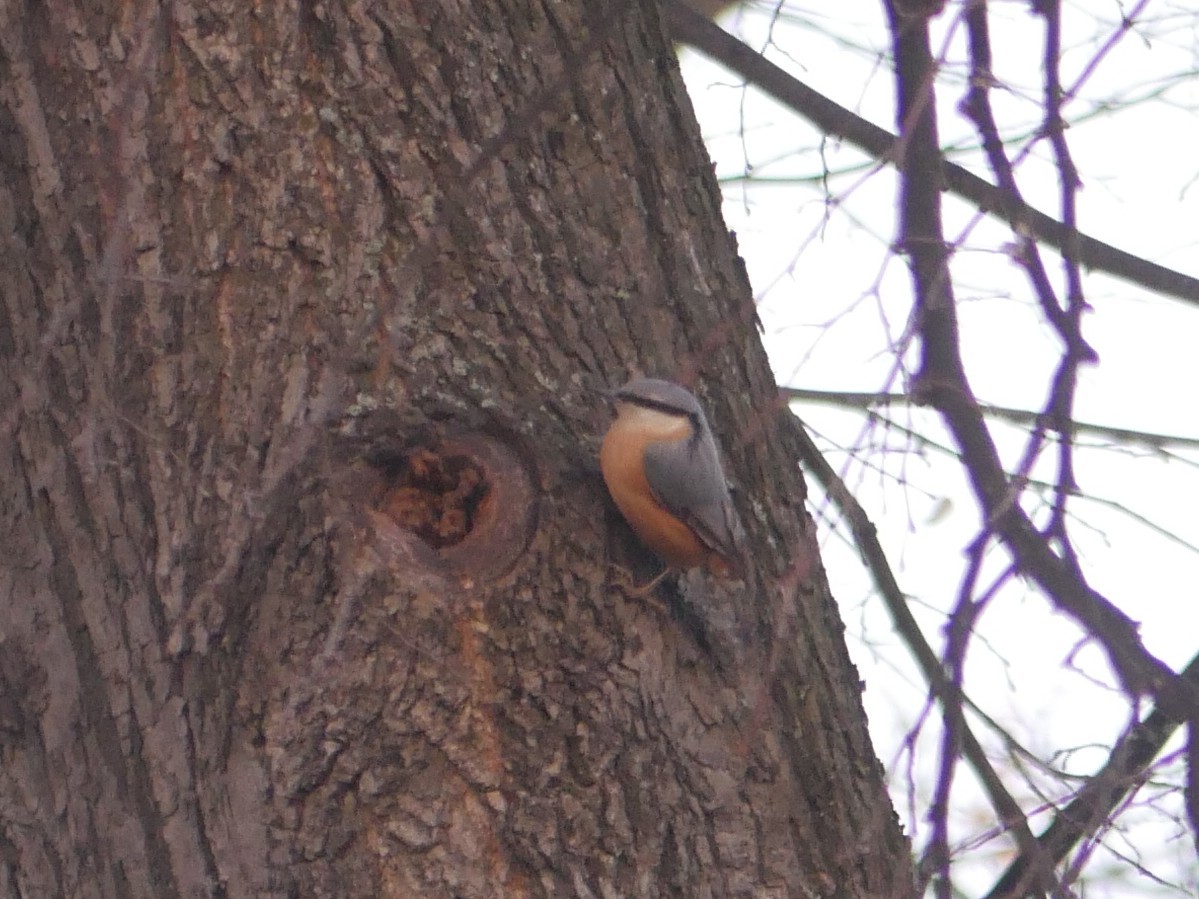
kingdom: Animalia
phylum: Chordata
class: Aves
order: Passeriformes
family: Sittidae
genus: Sitta
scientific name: Sitta europaea
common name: Eurasian nuthatch
